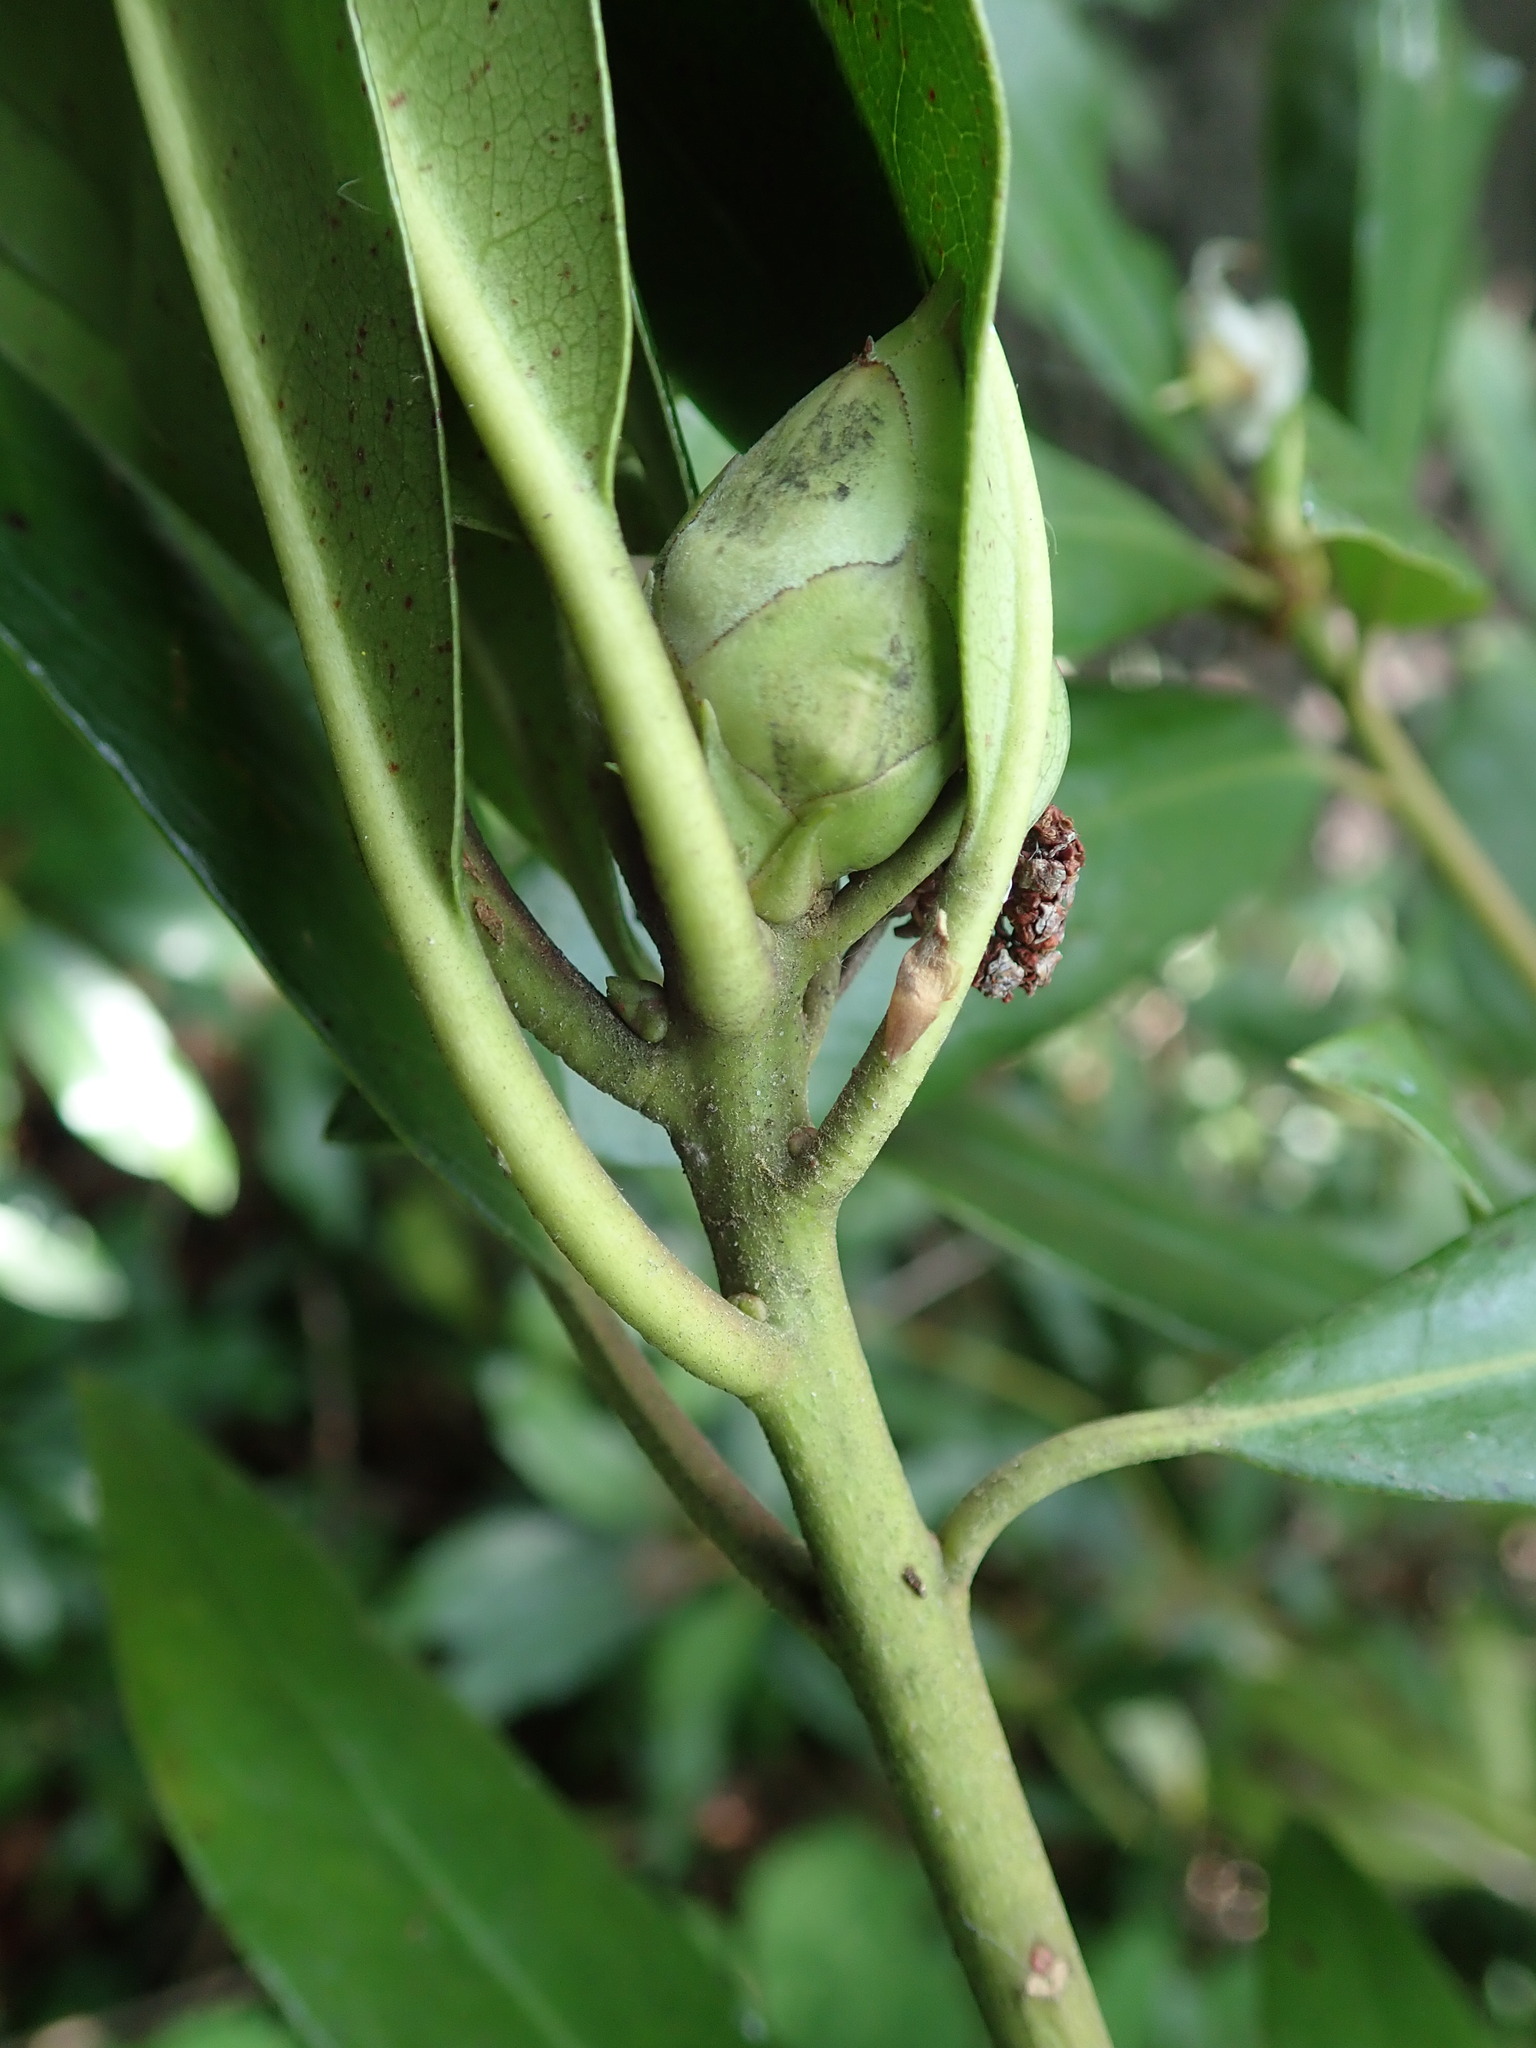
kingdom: Plantae
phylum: Tracheophyta
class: Magnoliopsida
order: Ericales
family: Ericaceae
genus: Rhododendron
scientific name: Rhododendron ponticum
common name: Rhododendron
